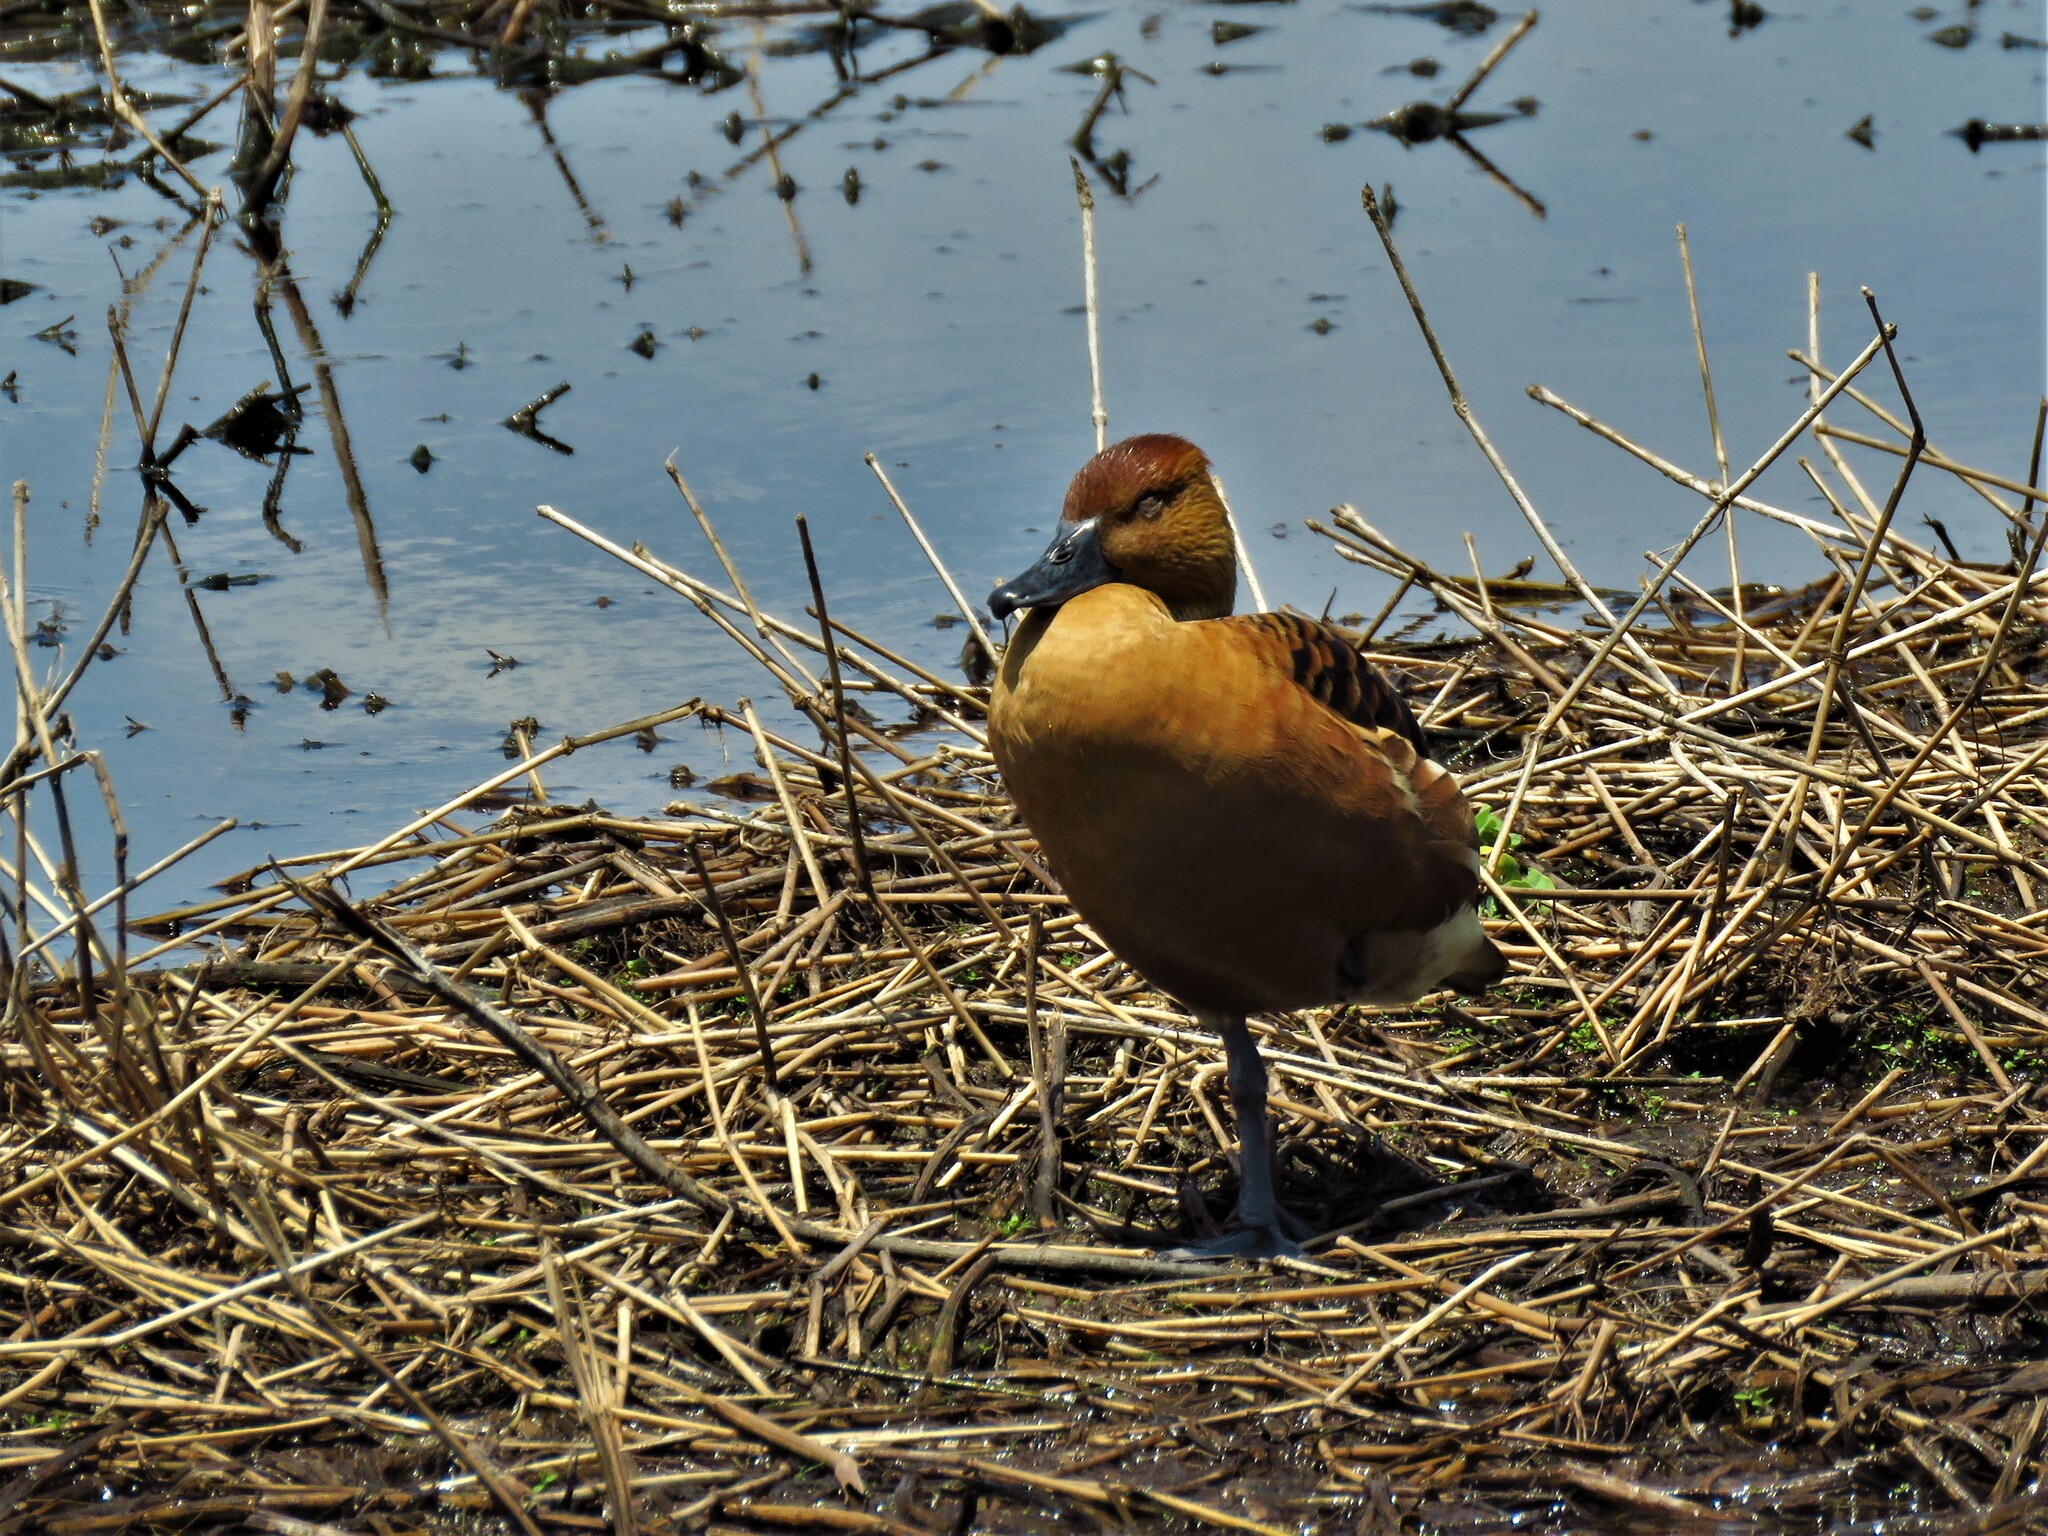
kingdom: Animalia
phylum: Chordata
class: Aves
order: Anseriformes
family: Anatidae
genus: Dendrocygna
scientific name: Dendrocygna bicolor
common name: Fulvous whistling duck
